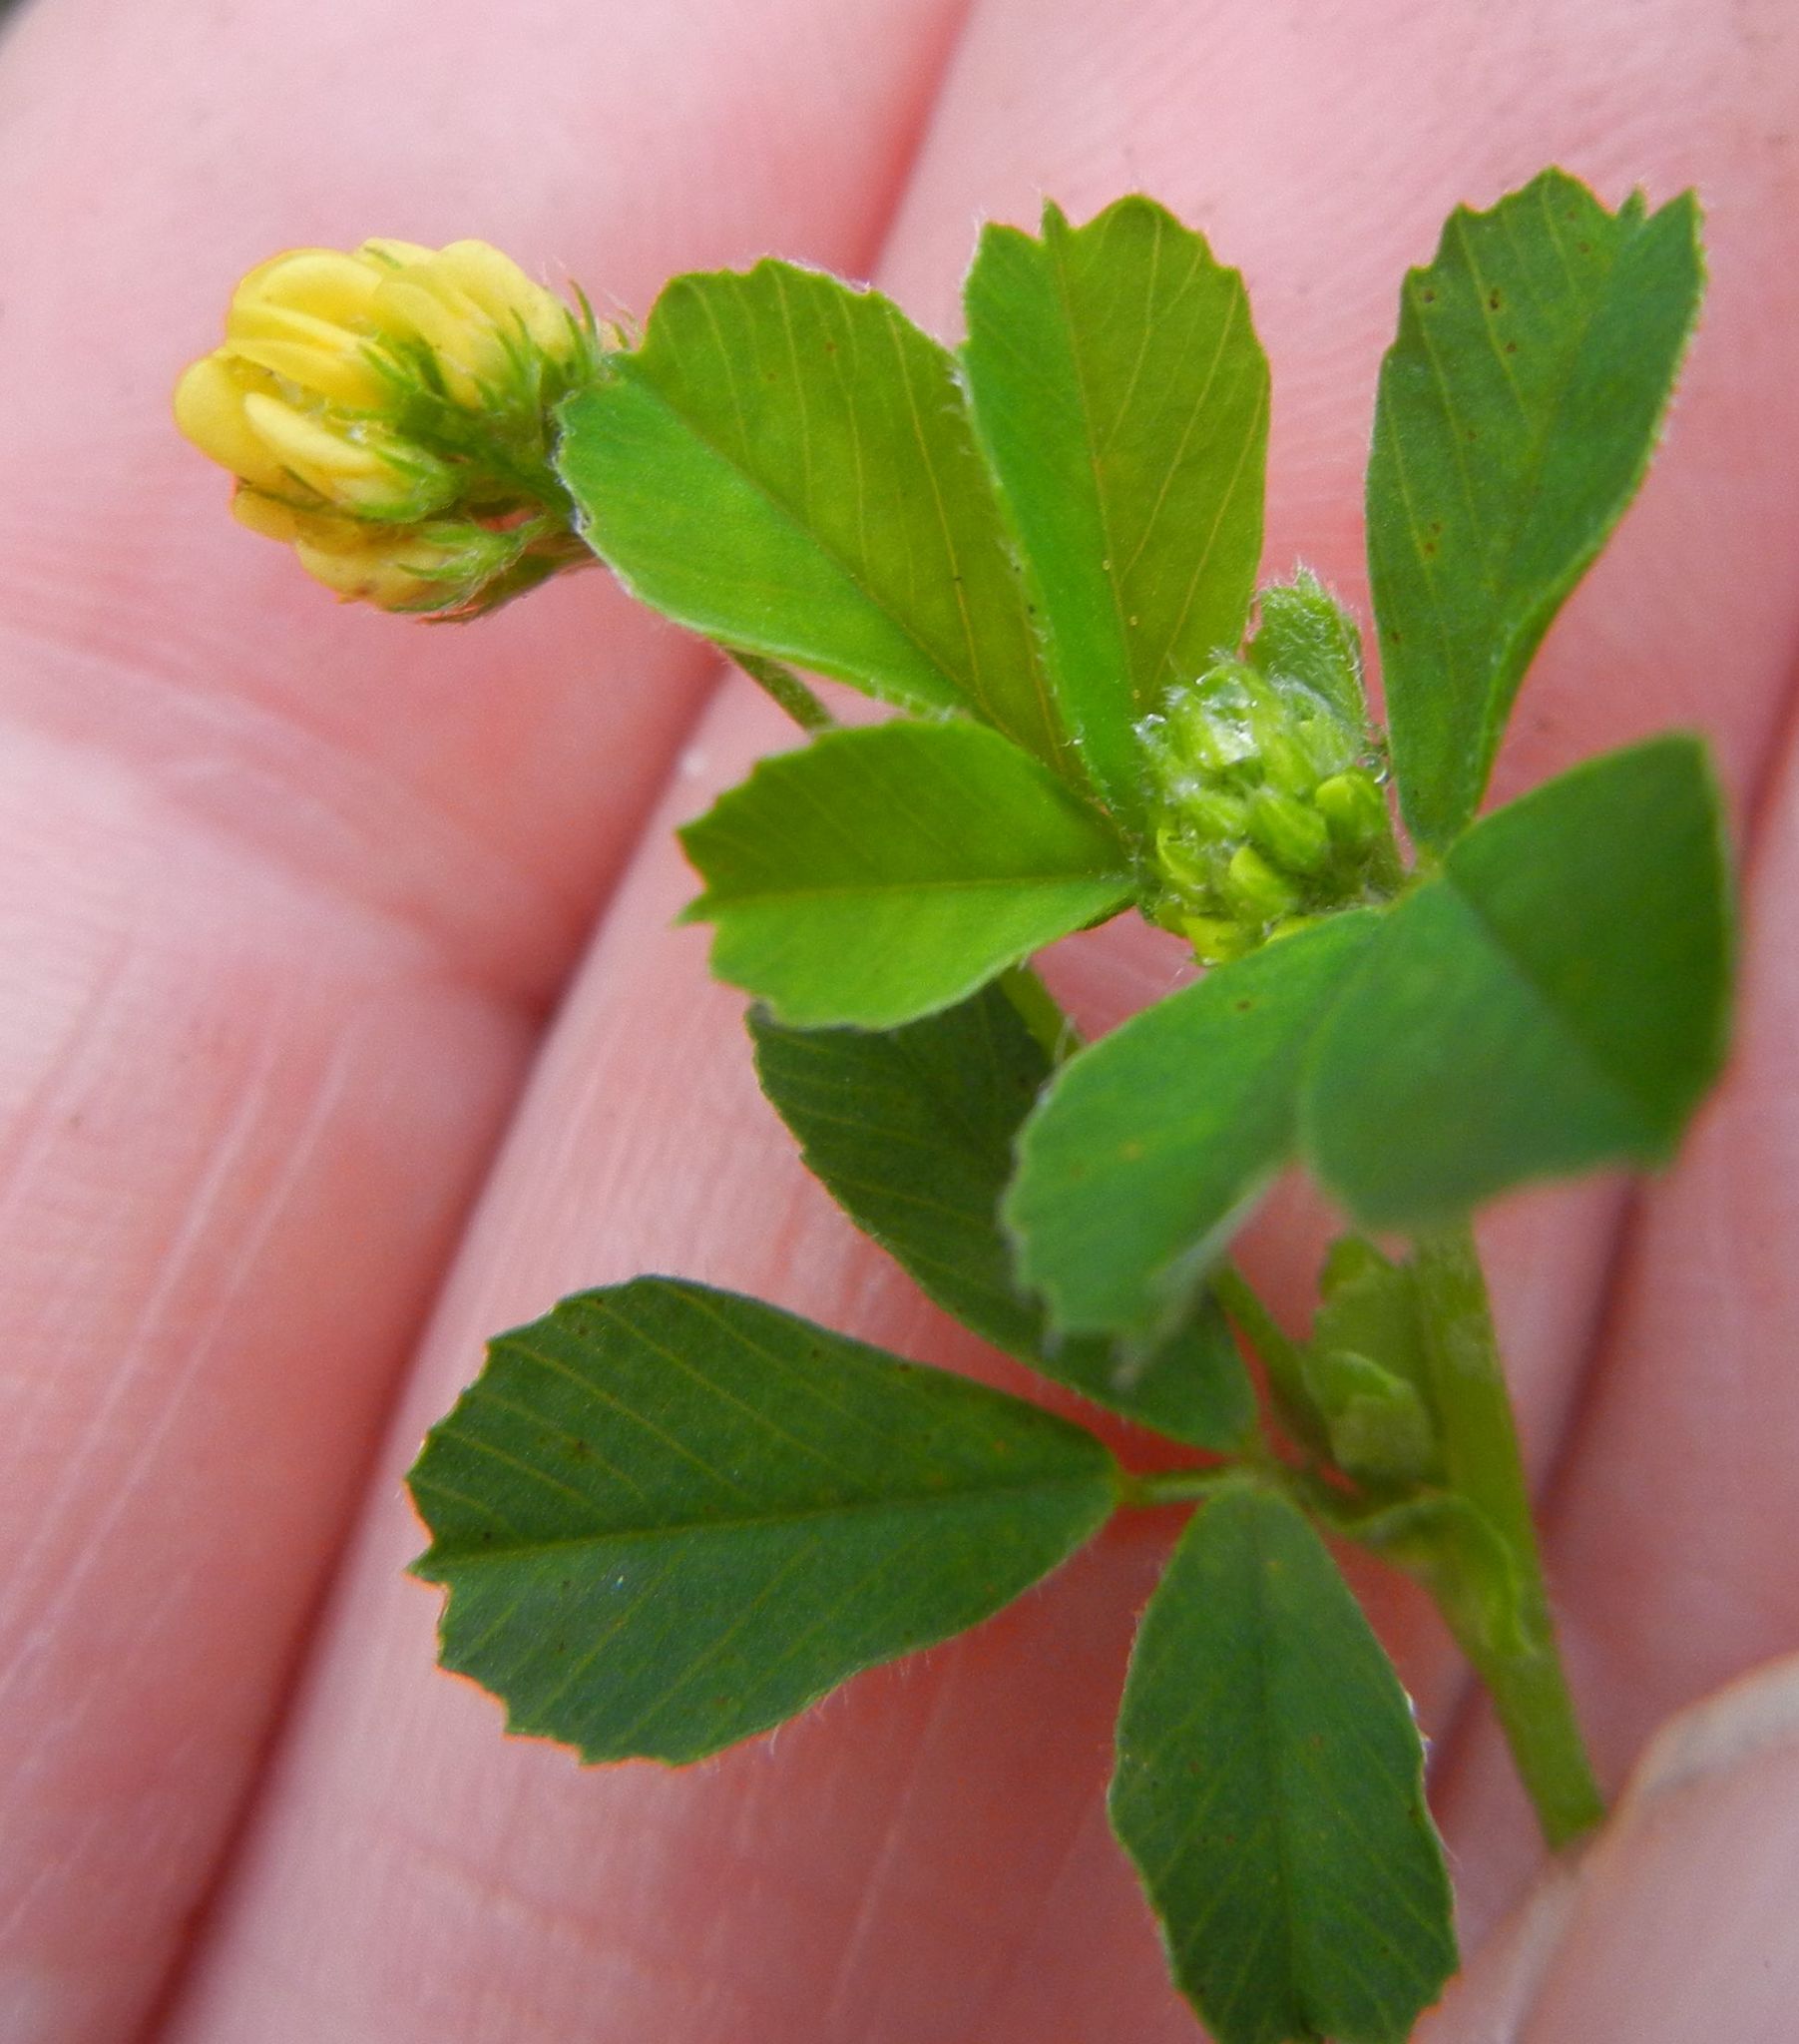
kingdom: Plantae
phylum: Tracheophyta
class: Magnoliopsida
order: Fabales
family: Fabaceae
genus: Medicago
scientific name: Medicago lupulina
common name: Black medick
